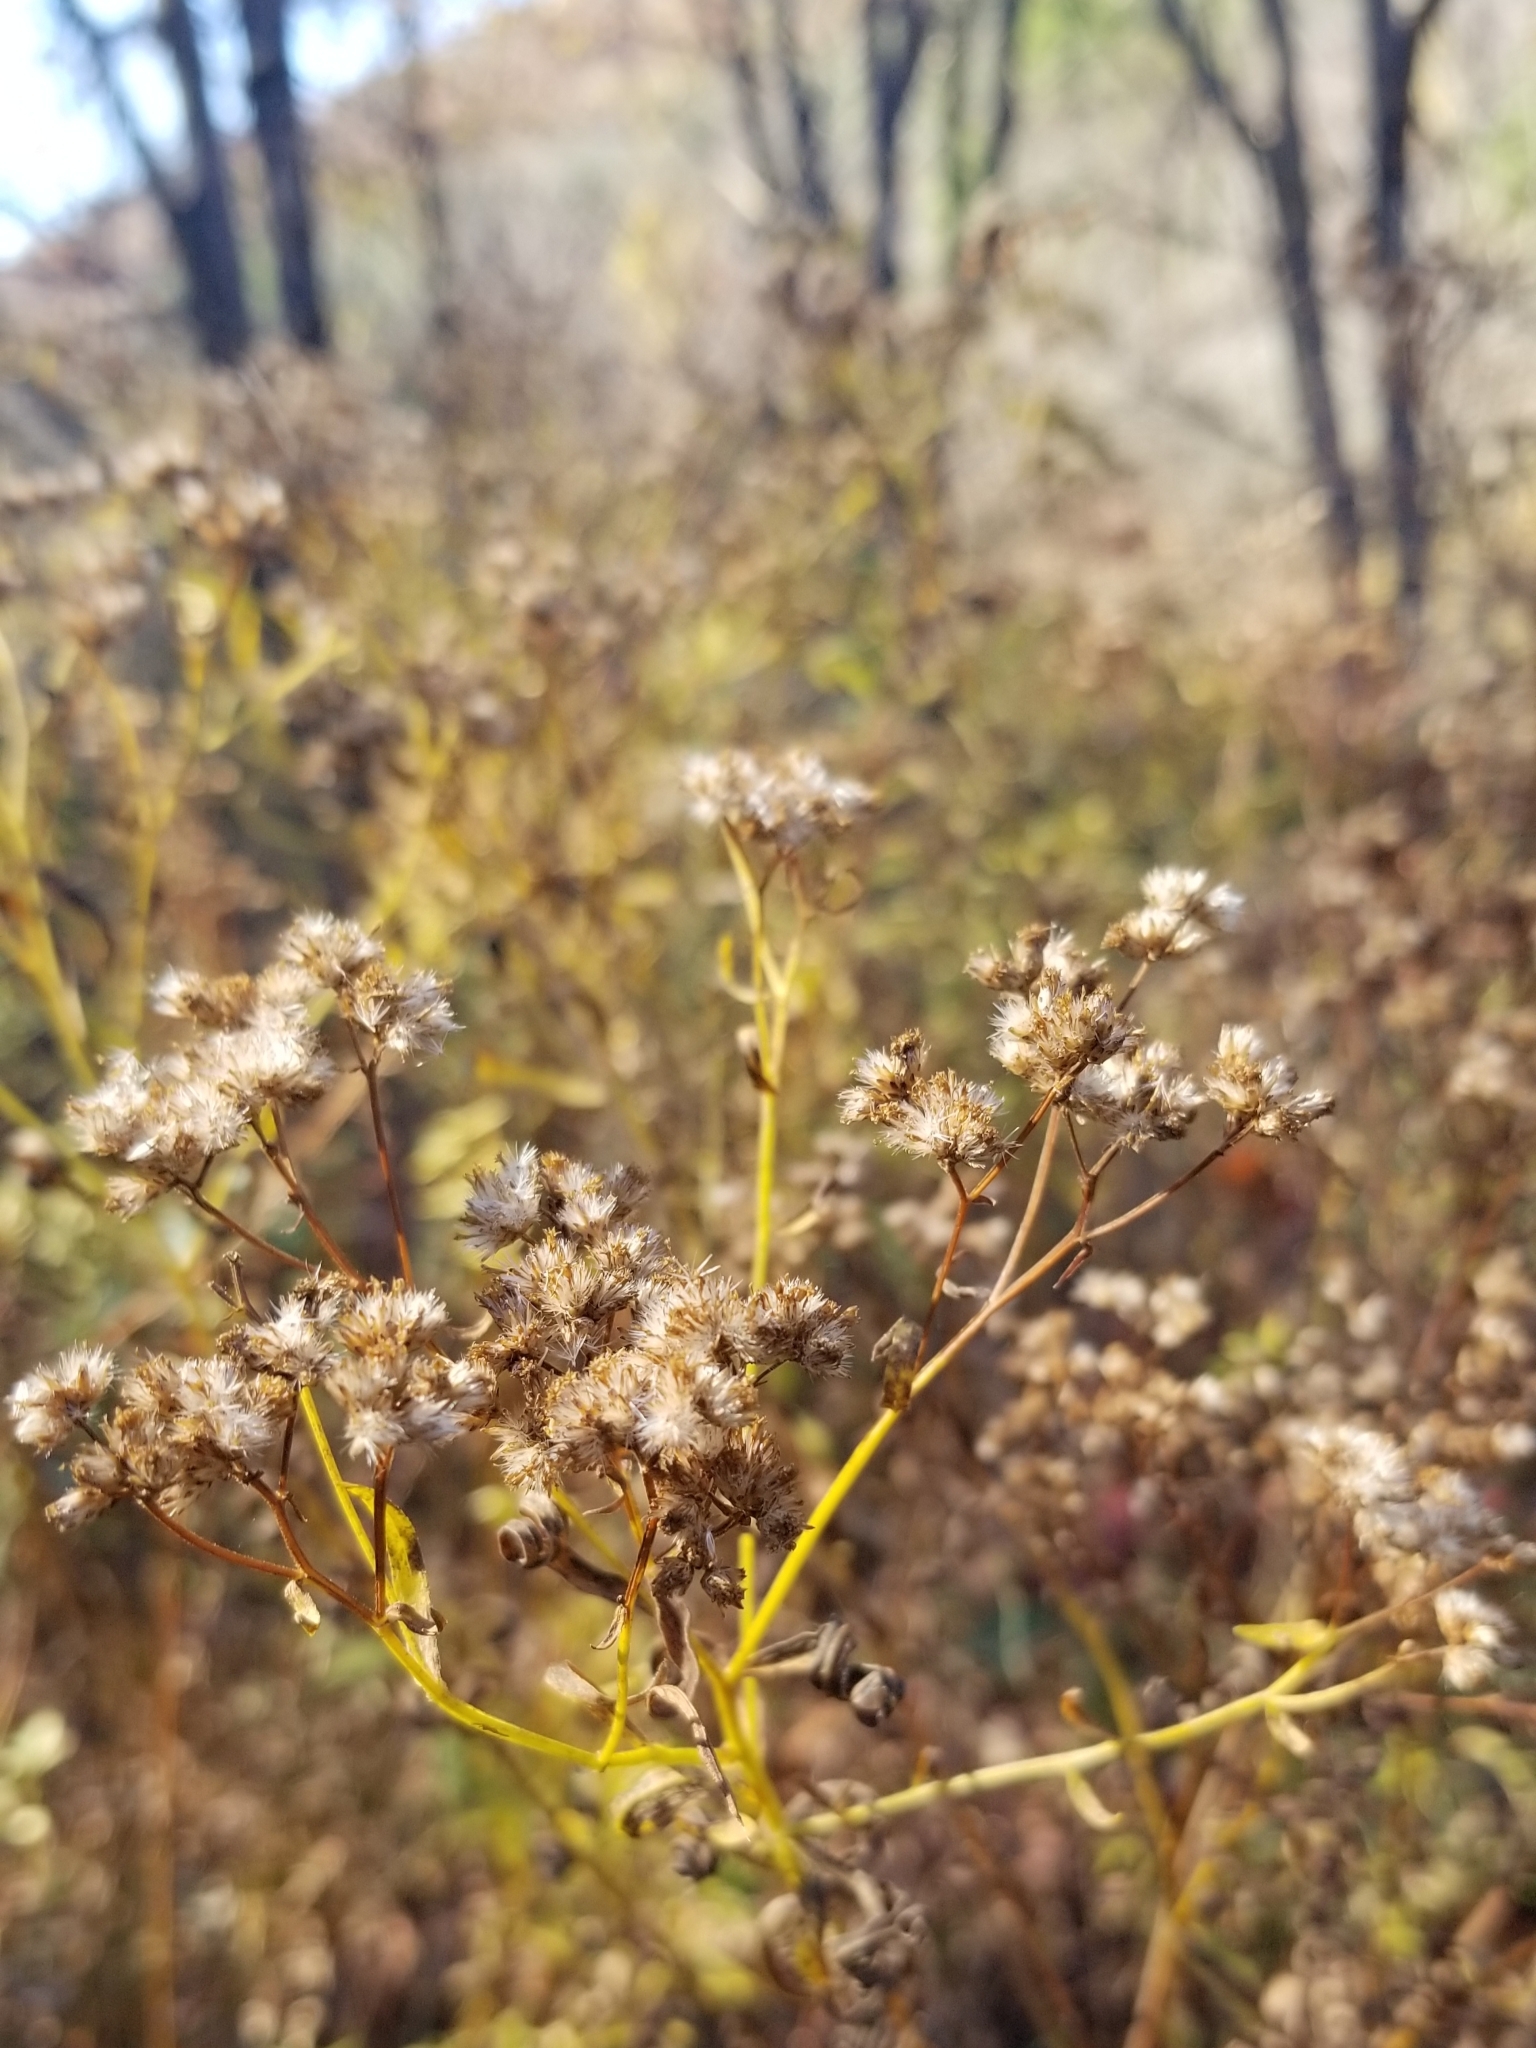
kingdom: Animalia
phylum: Arthropoda
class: Insecta
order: Diptera
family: Cecidomyiidae
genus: Asteromyia
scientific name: Asteromyia euthamiae
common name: Euthamia leaf gall midge
